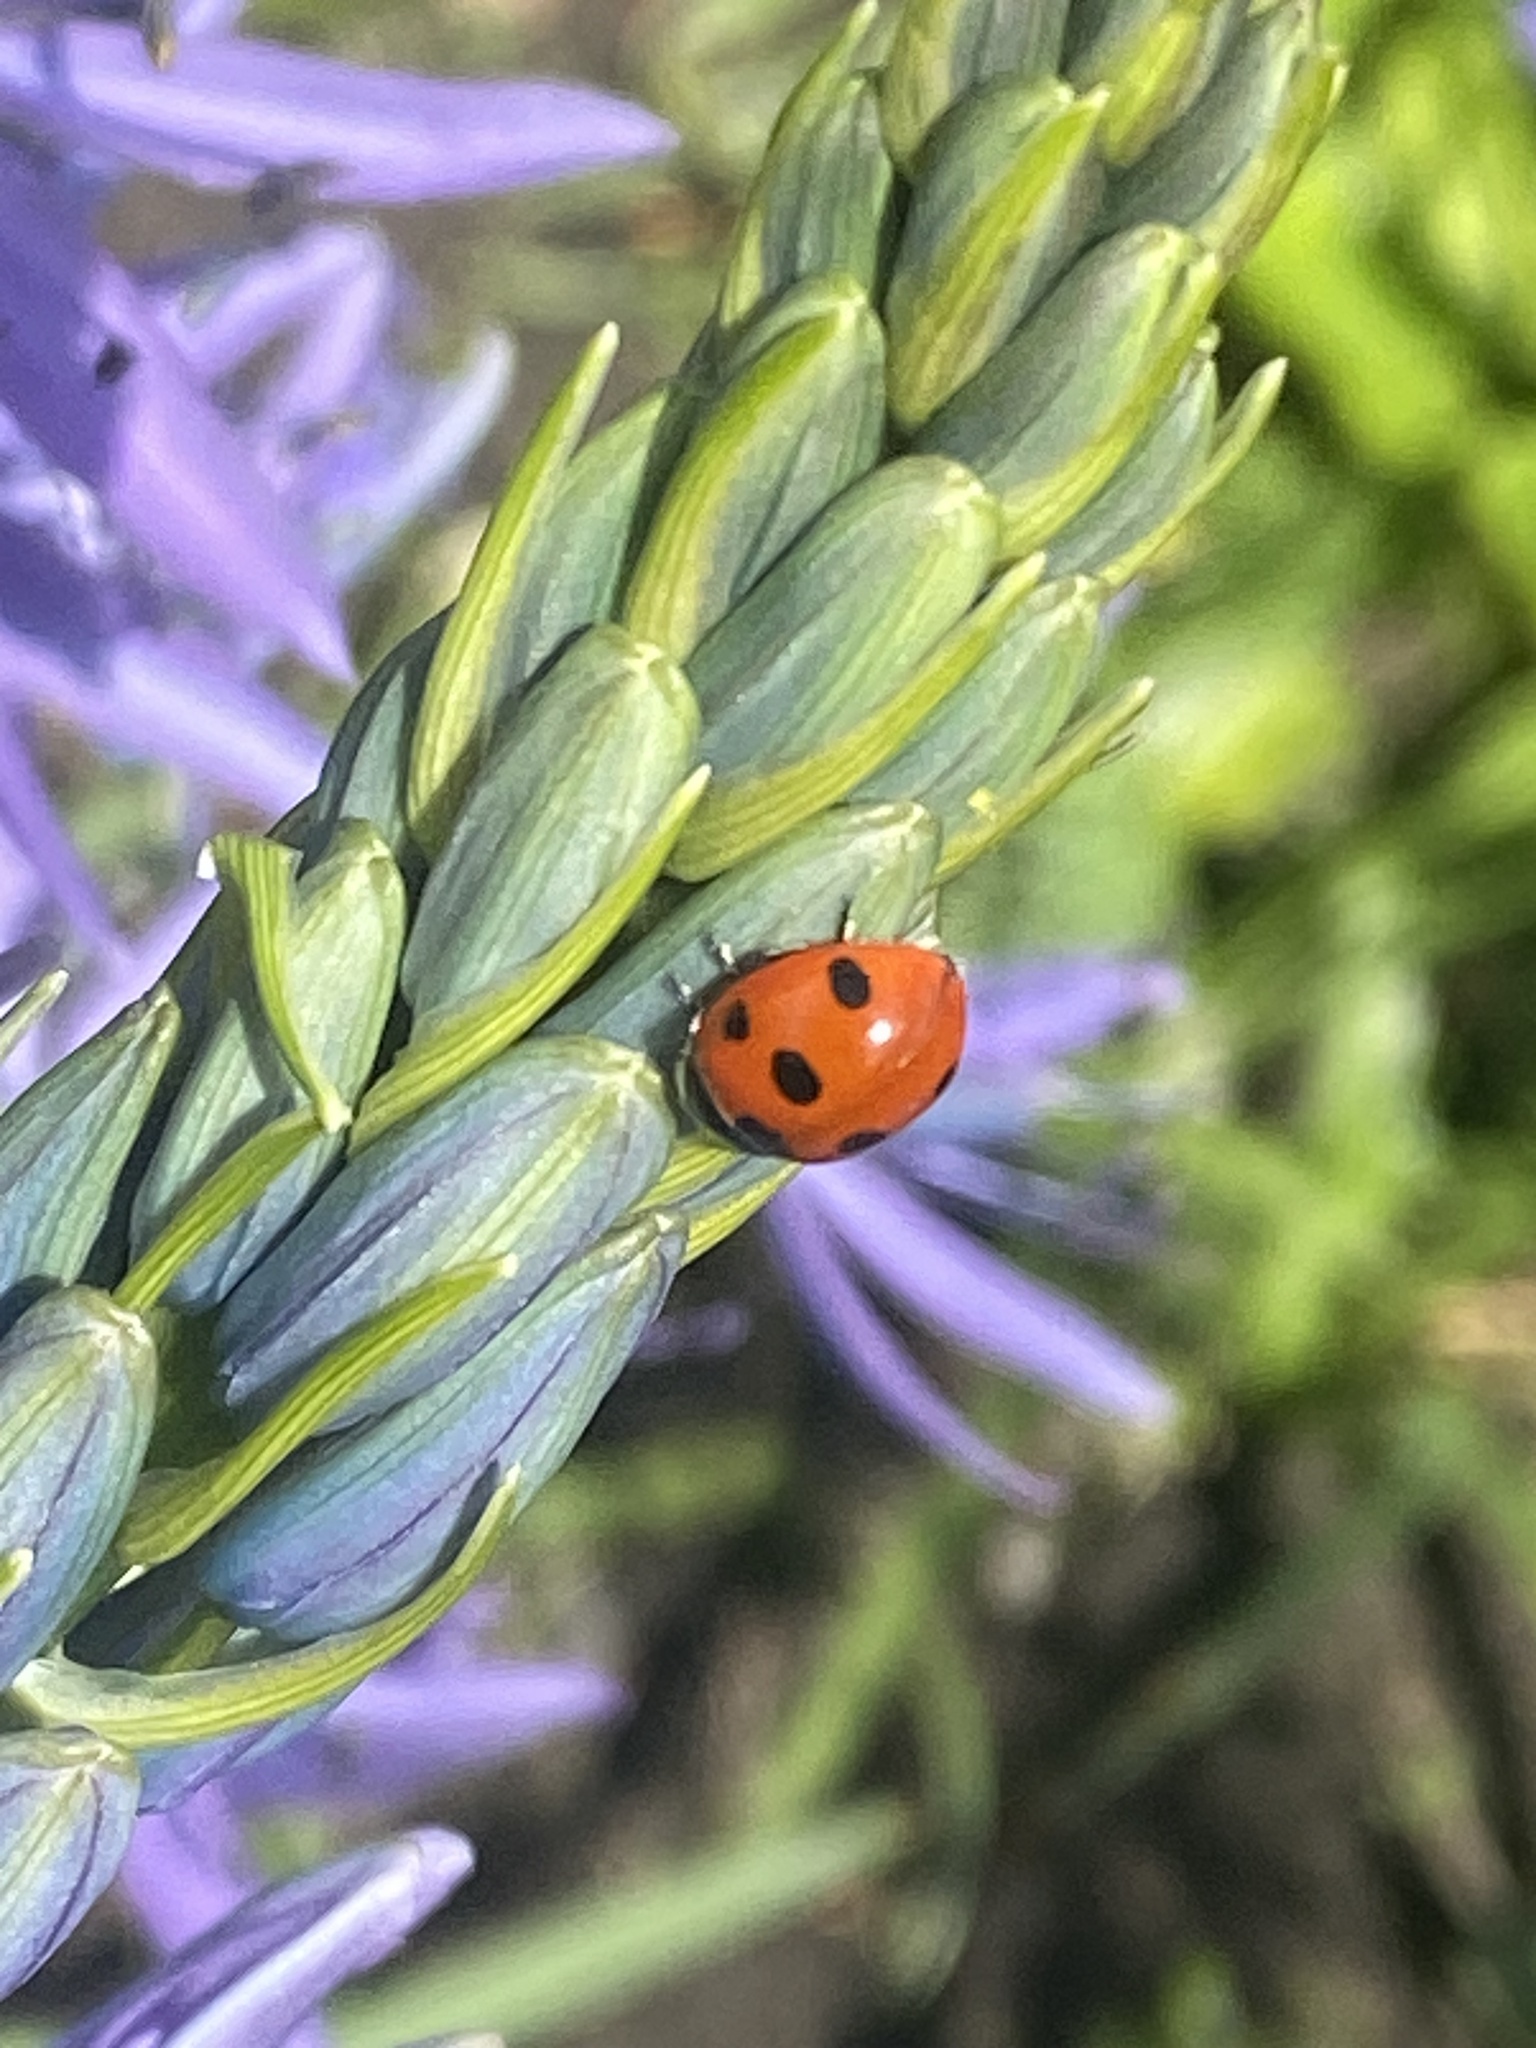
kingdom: Animalia
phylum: Arthropoda
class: Insecta
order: Coleoptera
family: Coccinellidae
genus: Coccinella
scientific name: Coccinella septempunctata
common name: Sevenspotted lady beetle
